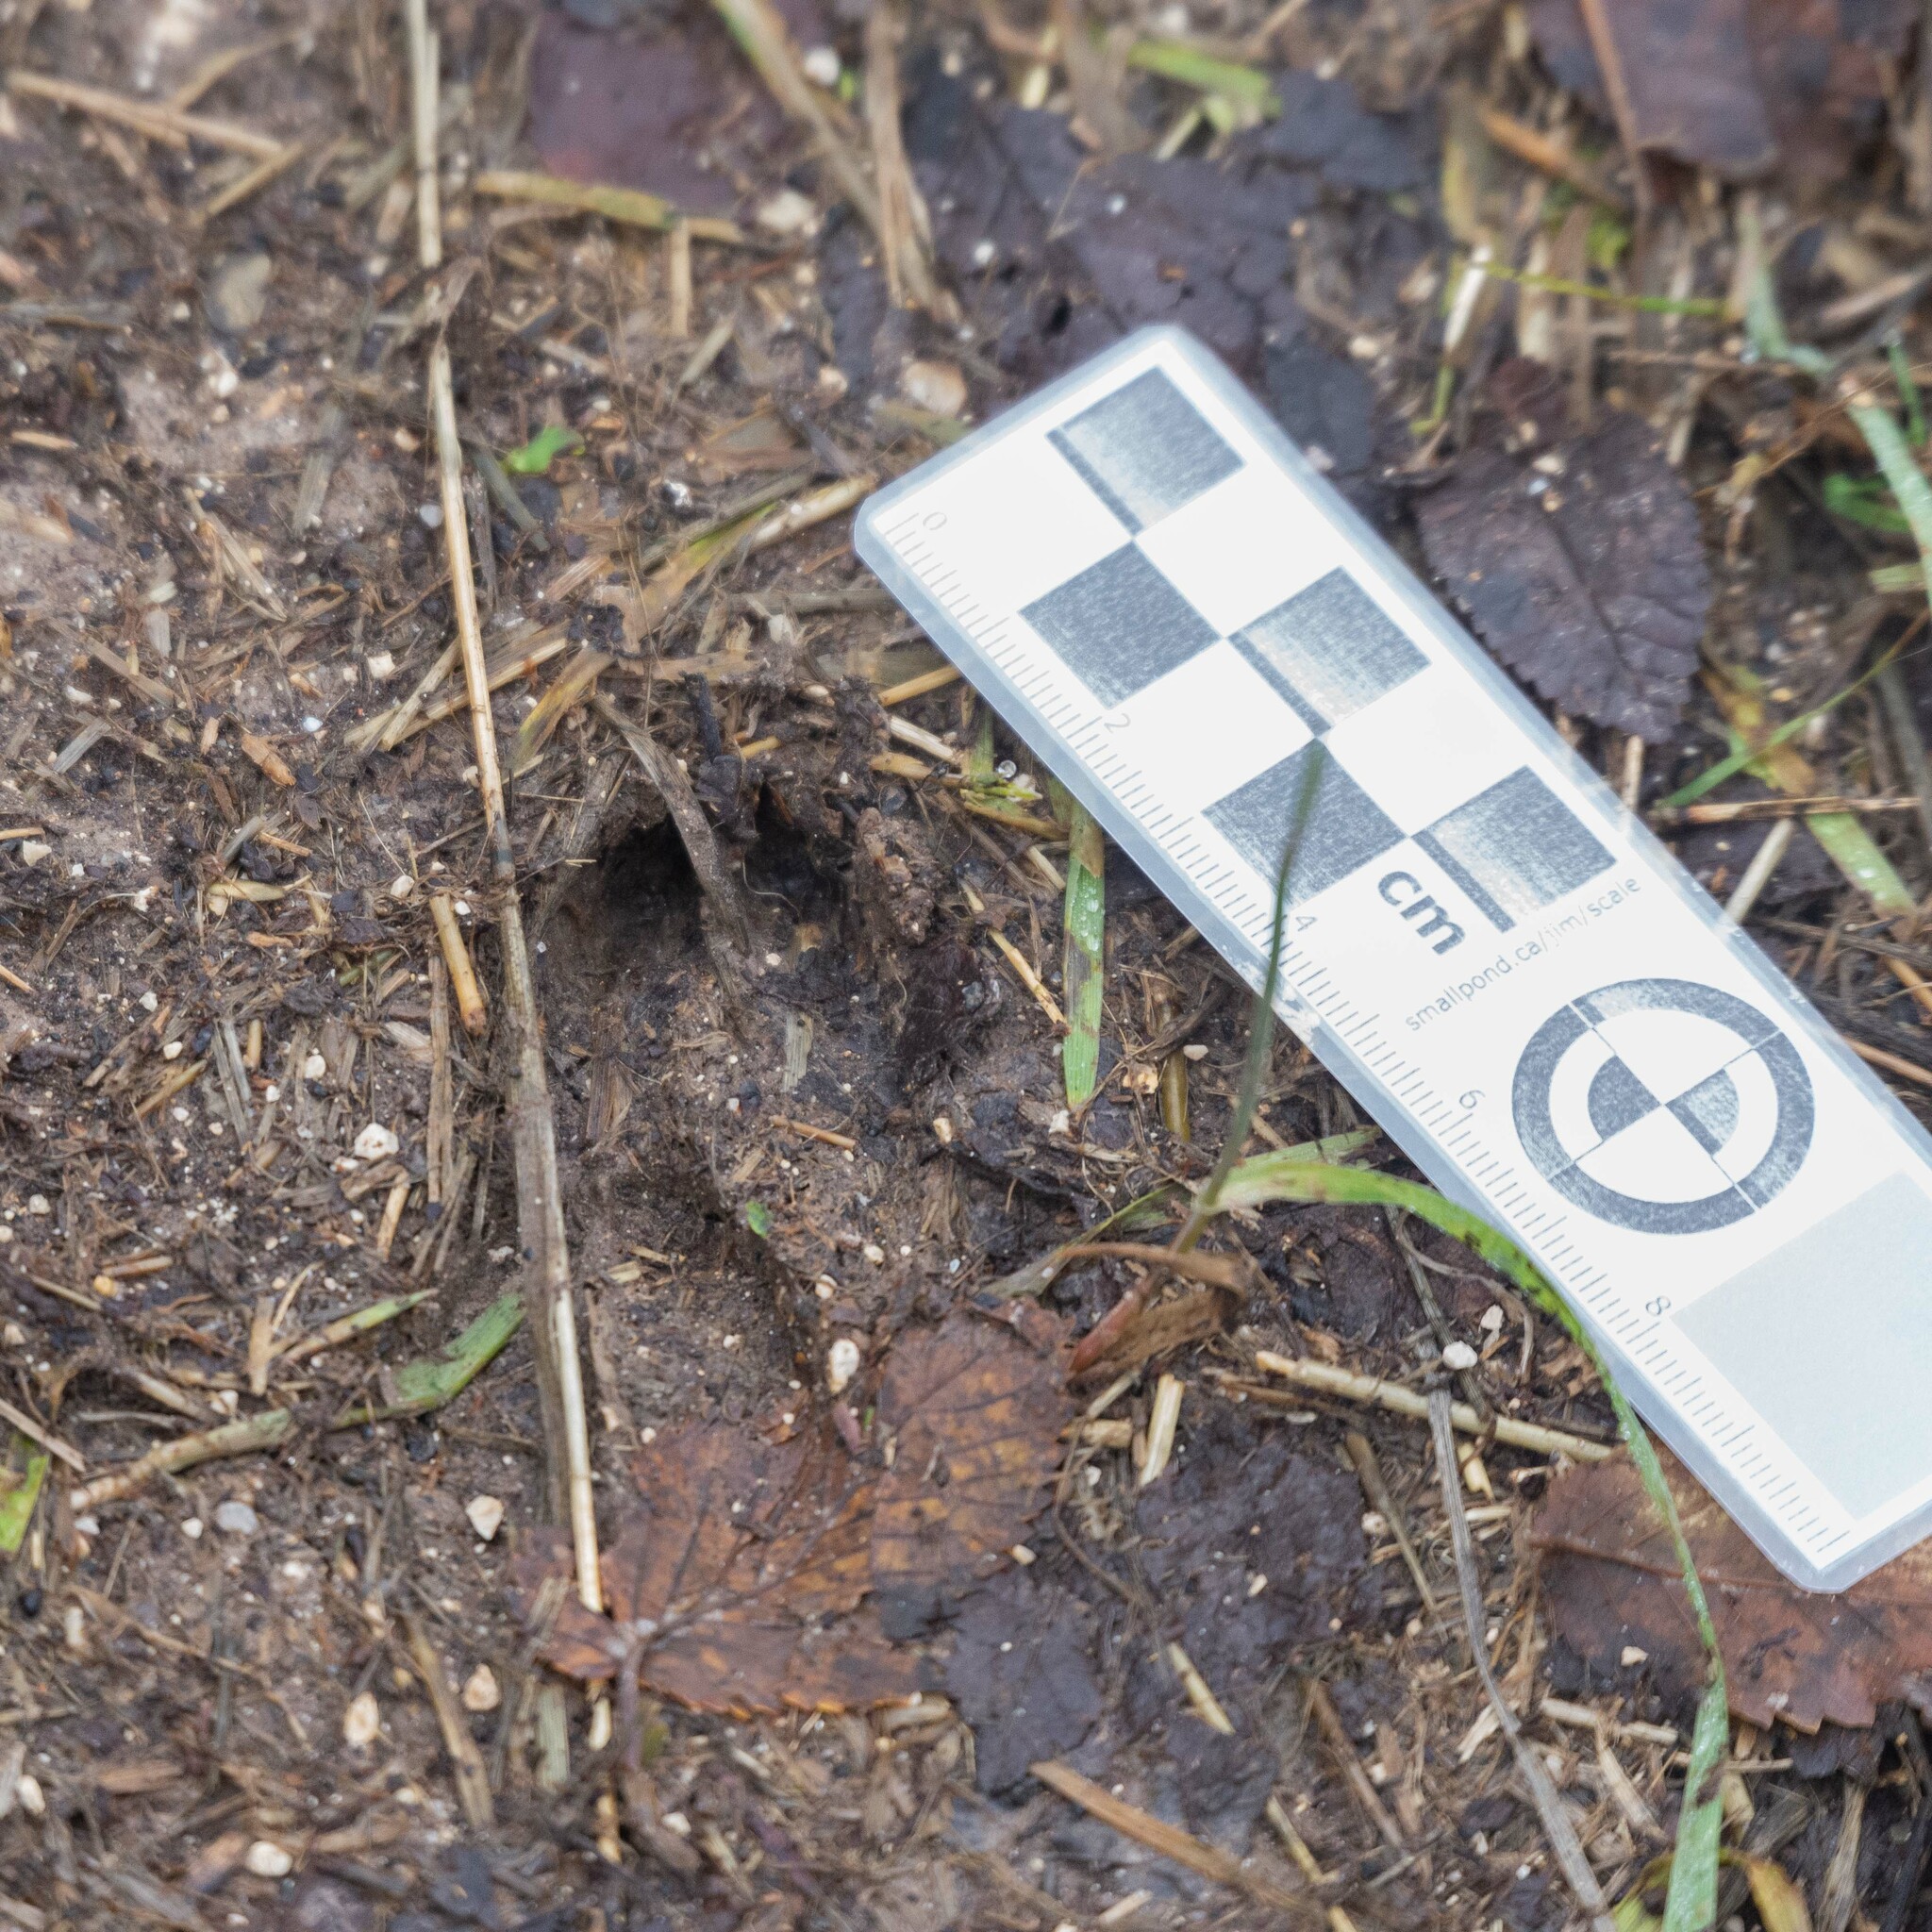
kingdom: Animalia
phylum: Chordata
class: Mammalia
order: Artiodactyla
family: Cervidae
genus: Capreolus
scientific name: Capreolus capreolus
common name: Western roe deer
